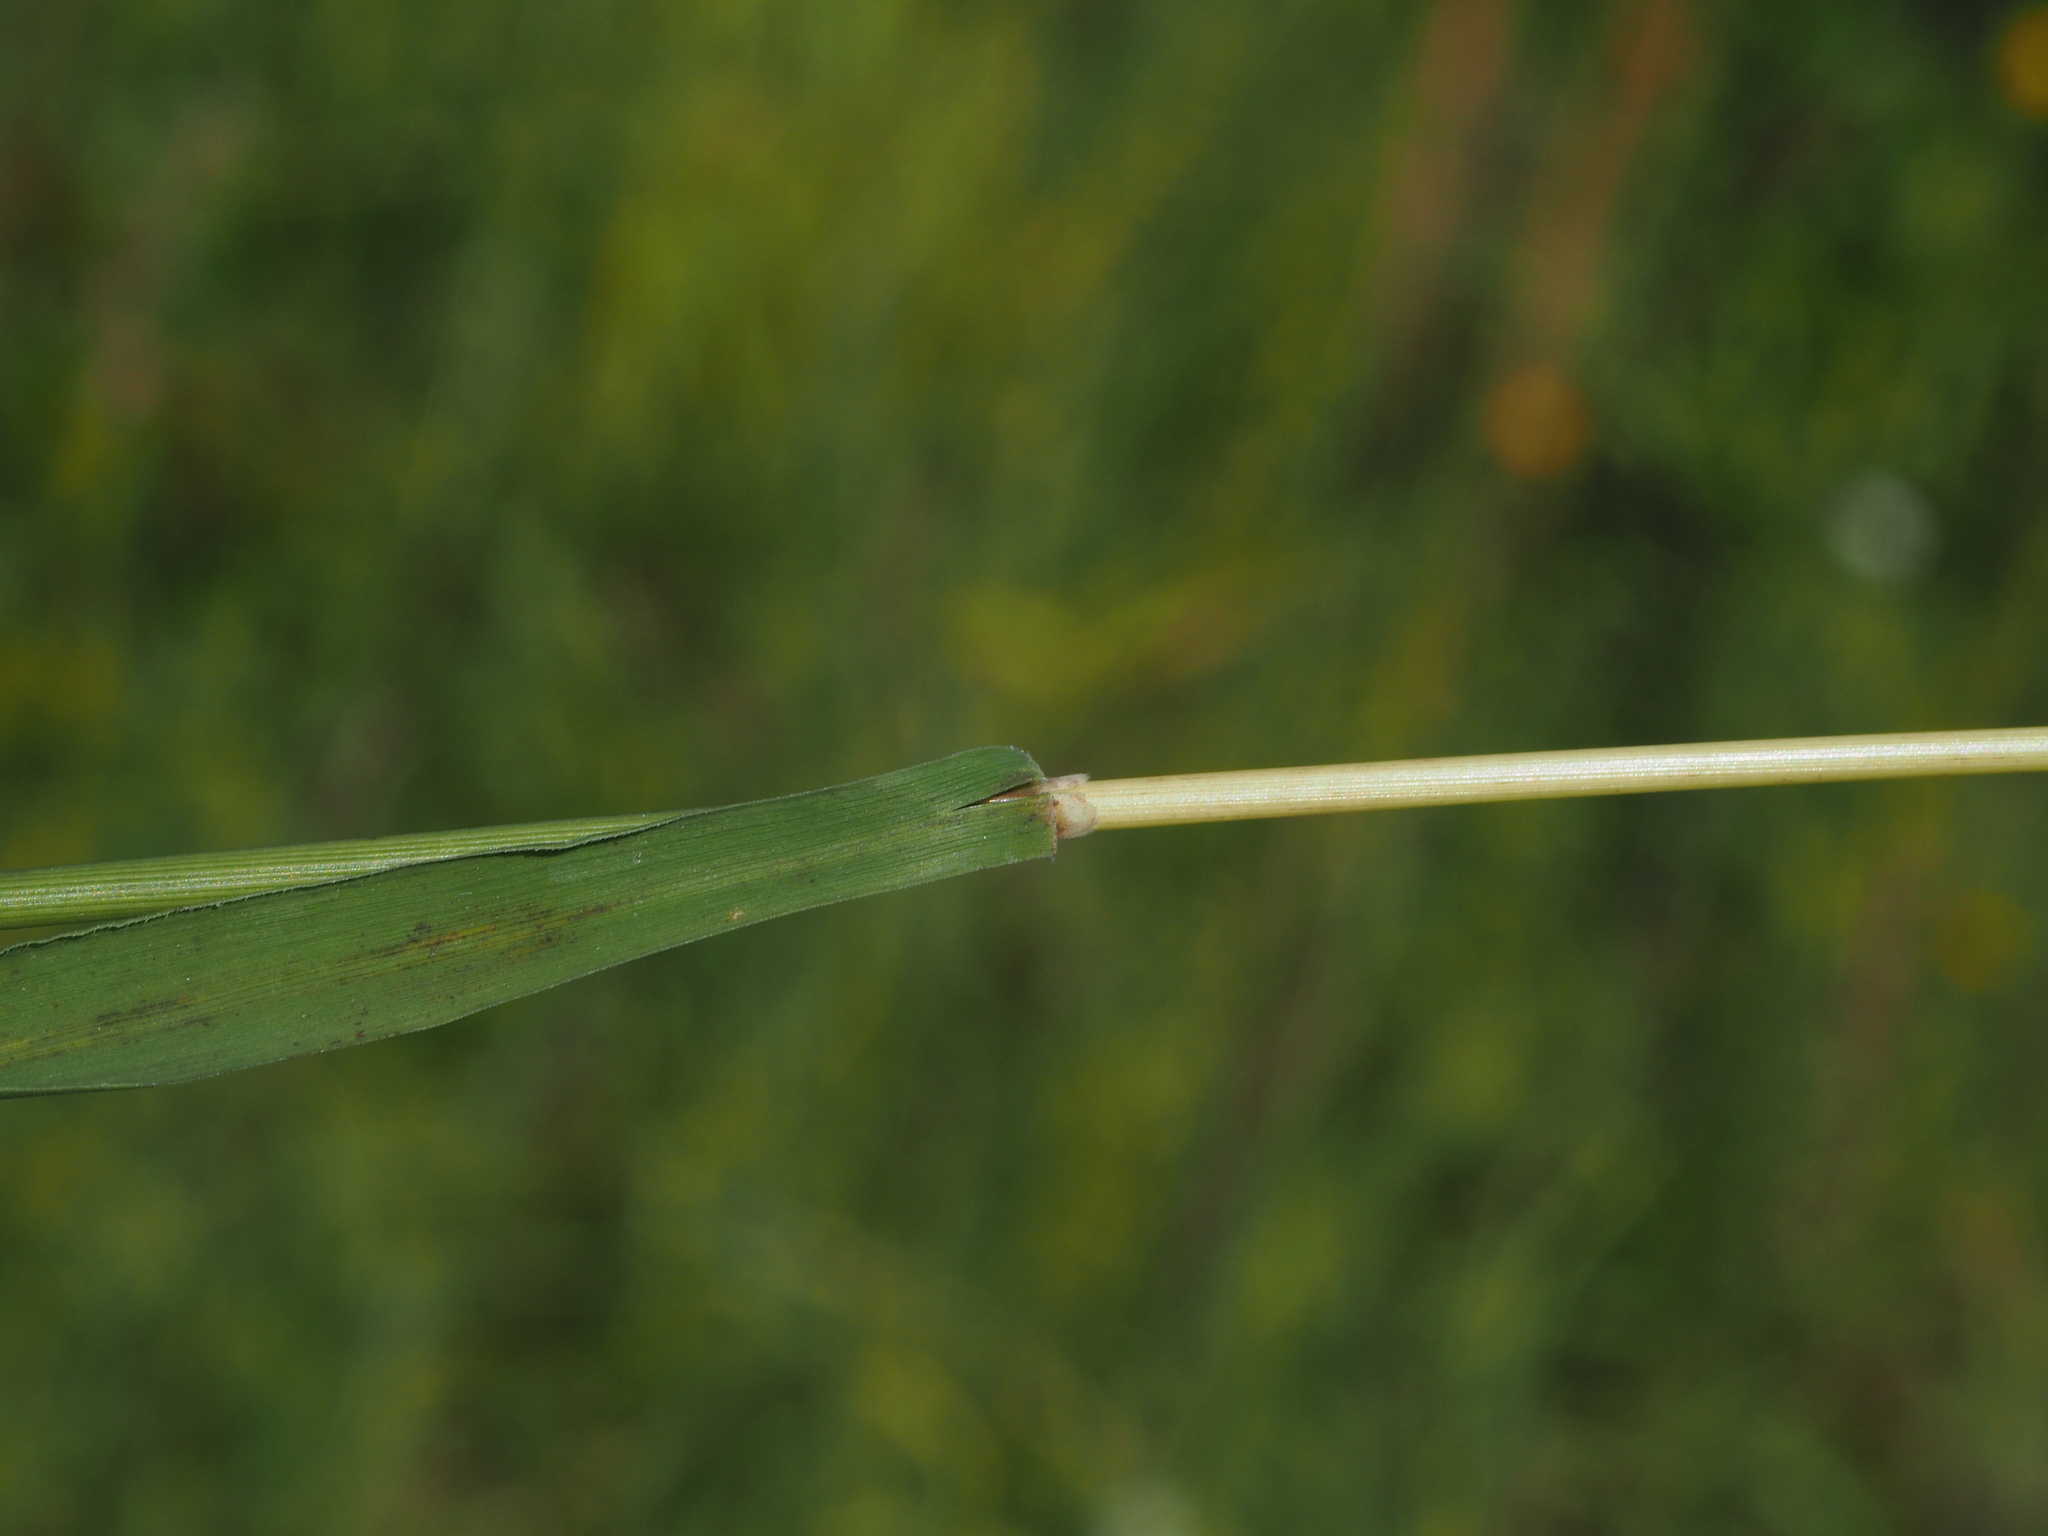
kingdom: Plantae
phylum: Tracheophyta
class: Liliopsida
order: Poales
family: Poaceae
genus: Brachypodium
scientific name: Brachypodium pinnatum
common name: Tor grass
